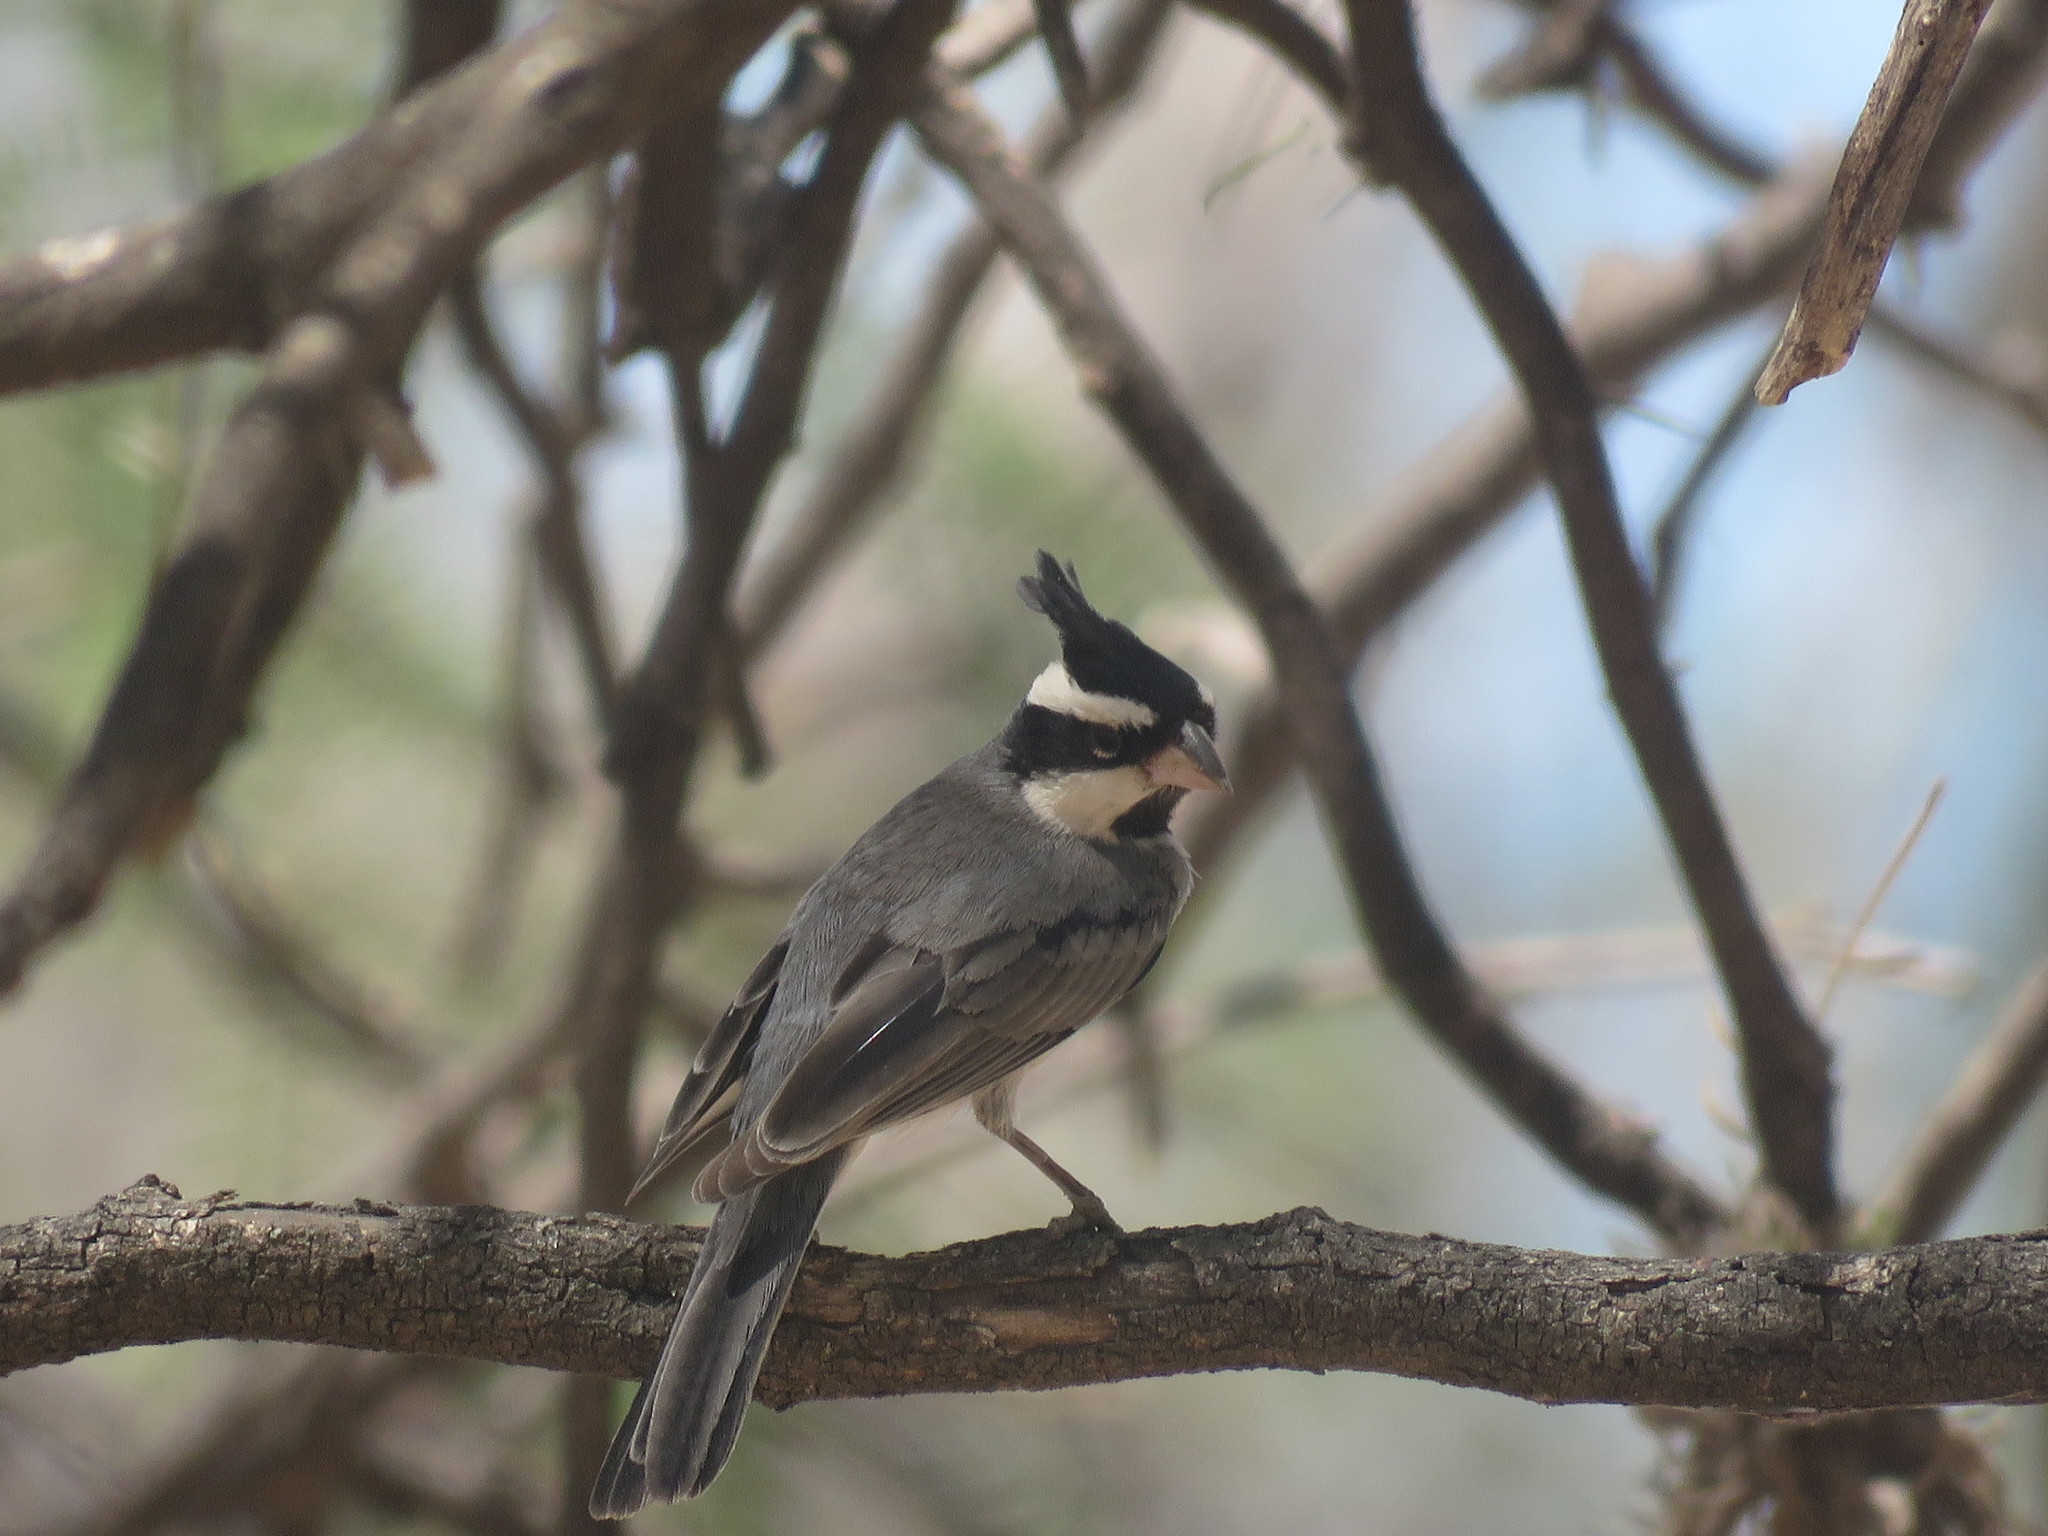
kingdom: Animalia
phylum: Chordata
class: Aves
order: Piciformes
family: Picidae
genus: Melanerpes
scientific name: Melanerpes cactorum
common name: White-fronted woodpecker
